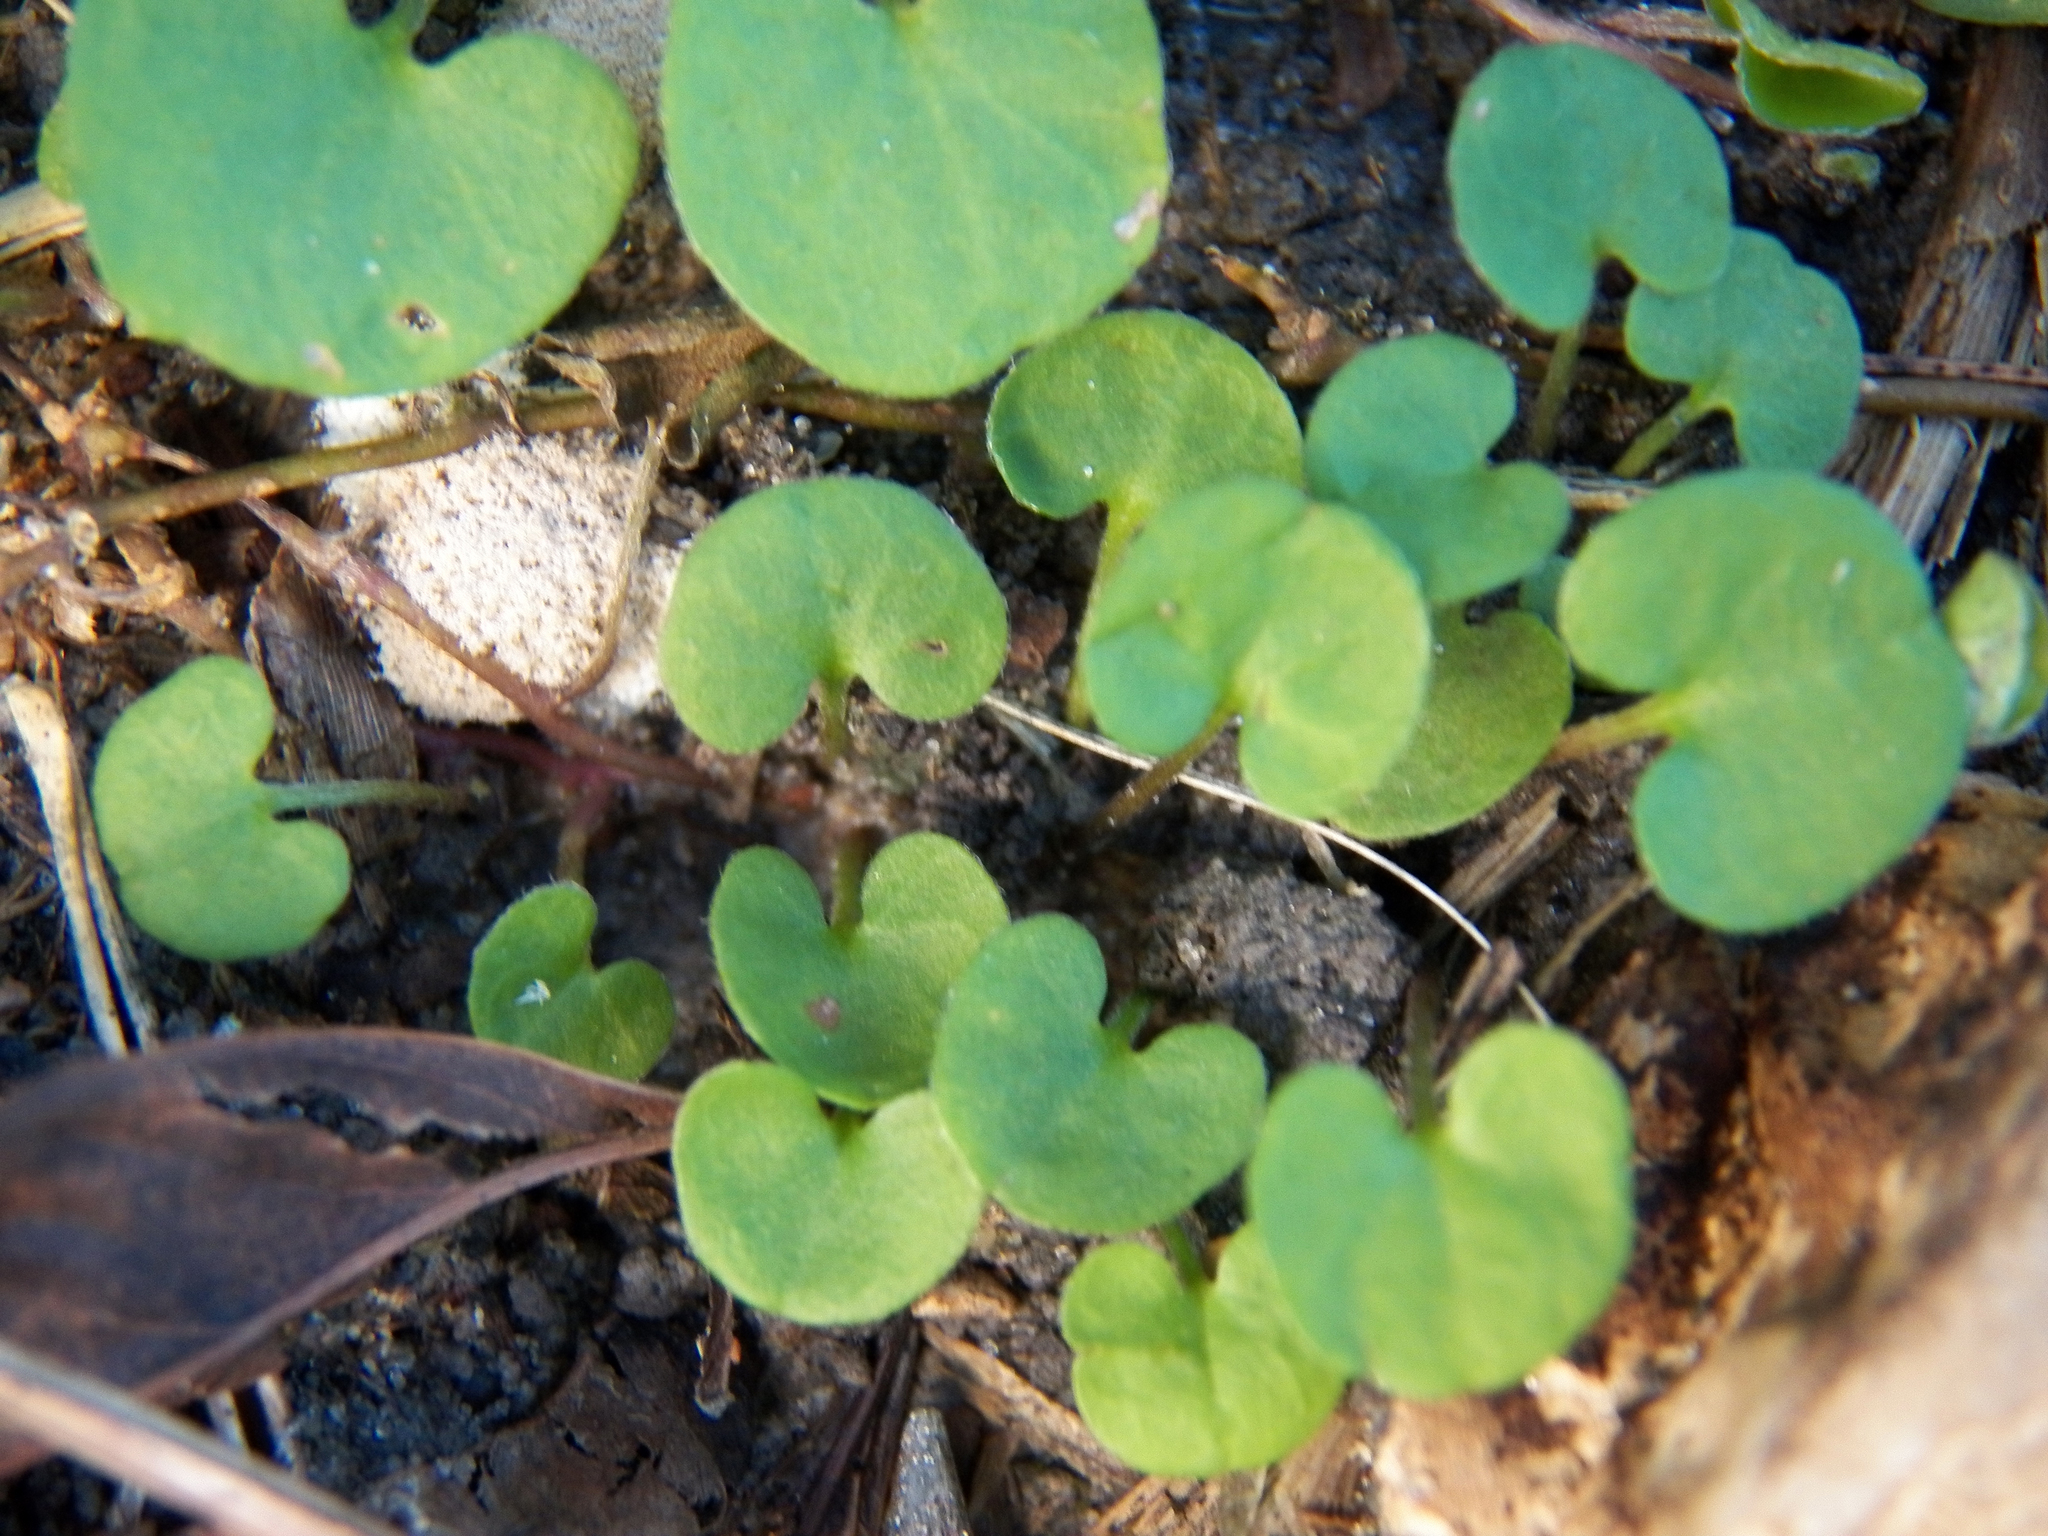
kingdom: Plantae
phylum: Tracheophyta
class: Magnoliopsida
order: Solanales
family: Convolvulaceae
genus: Dichondra
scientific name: Dichondra carolinensis
